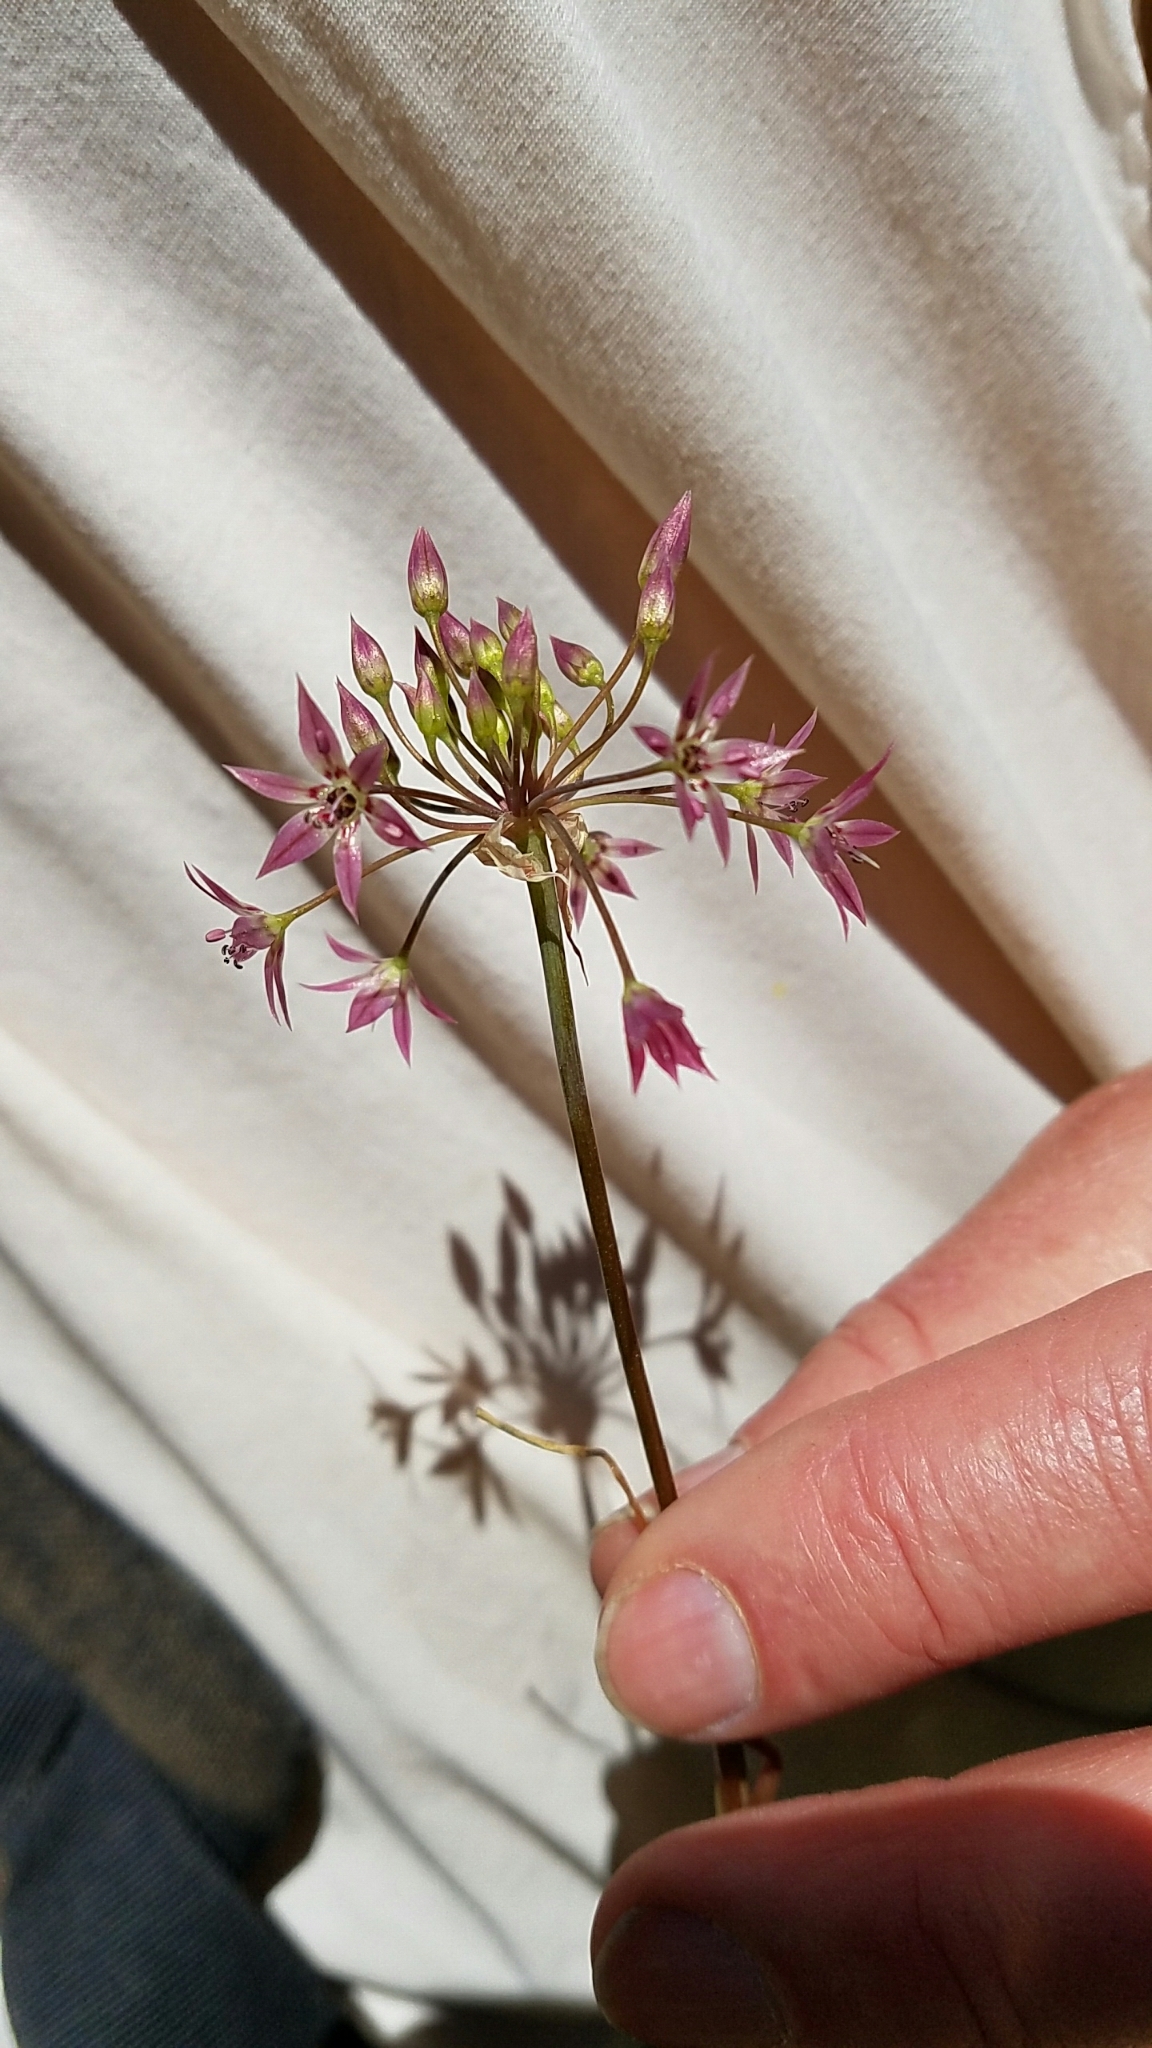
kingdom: Plantae
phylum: Tracheophyta
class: Liliopsida
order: Asparagales
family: Amaryllidaceae
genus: Allium
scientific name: Allium campanulatum
